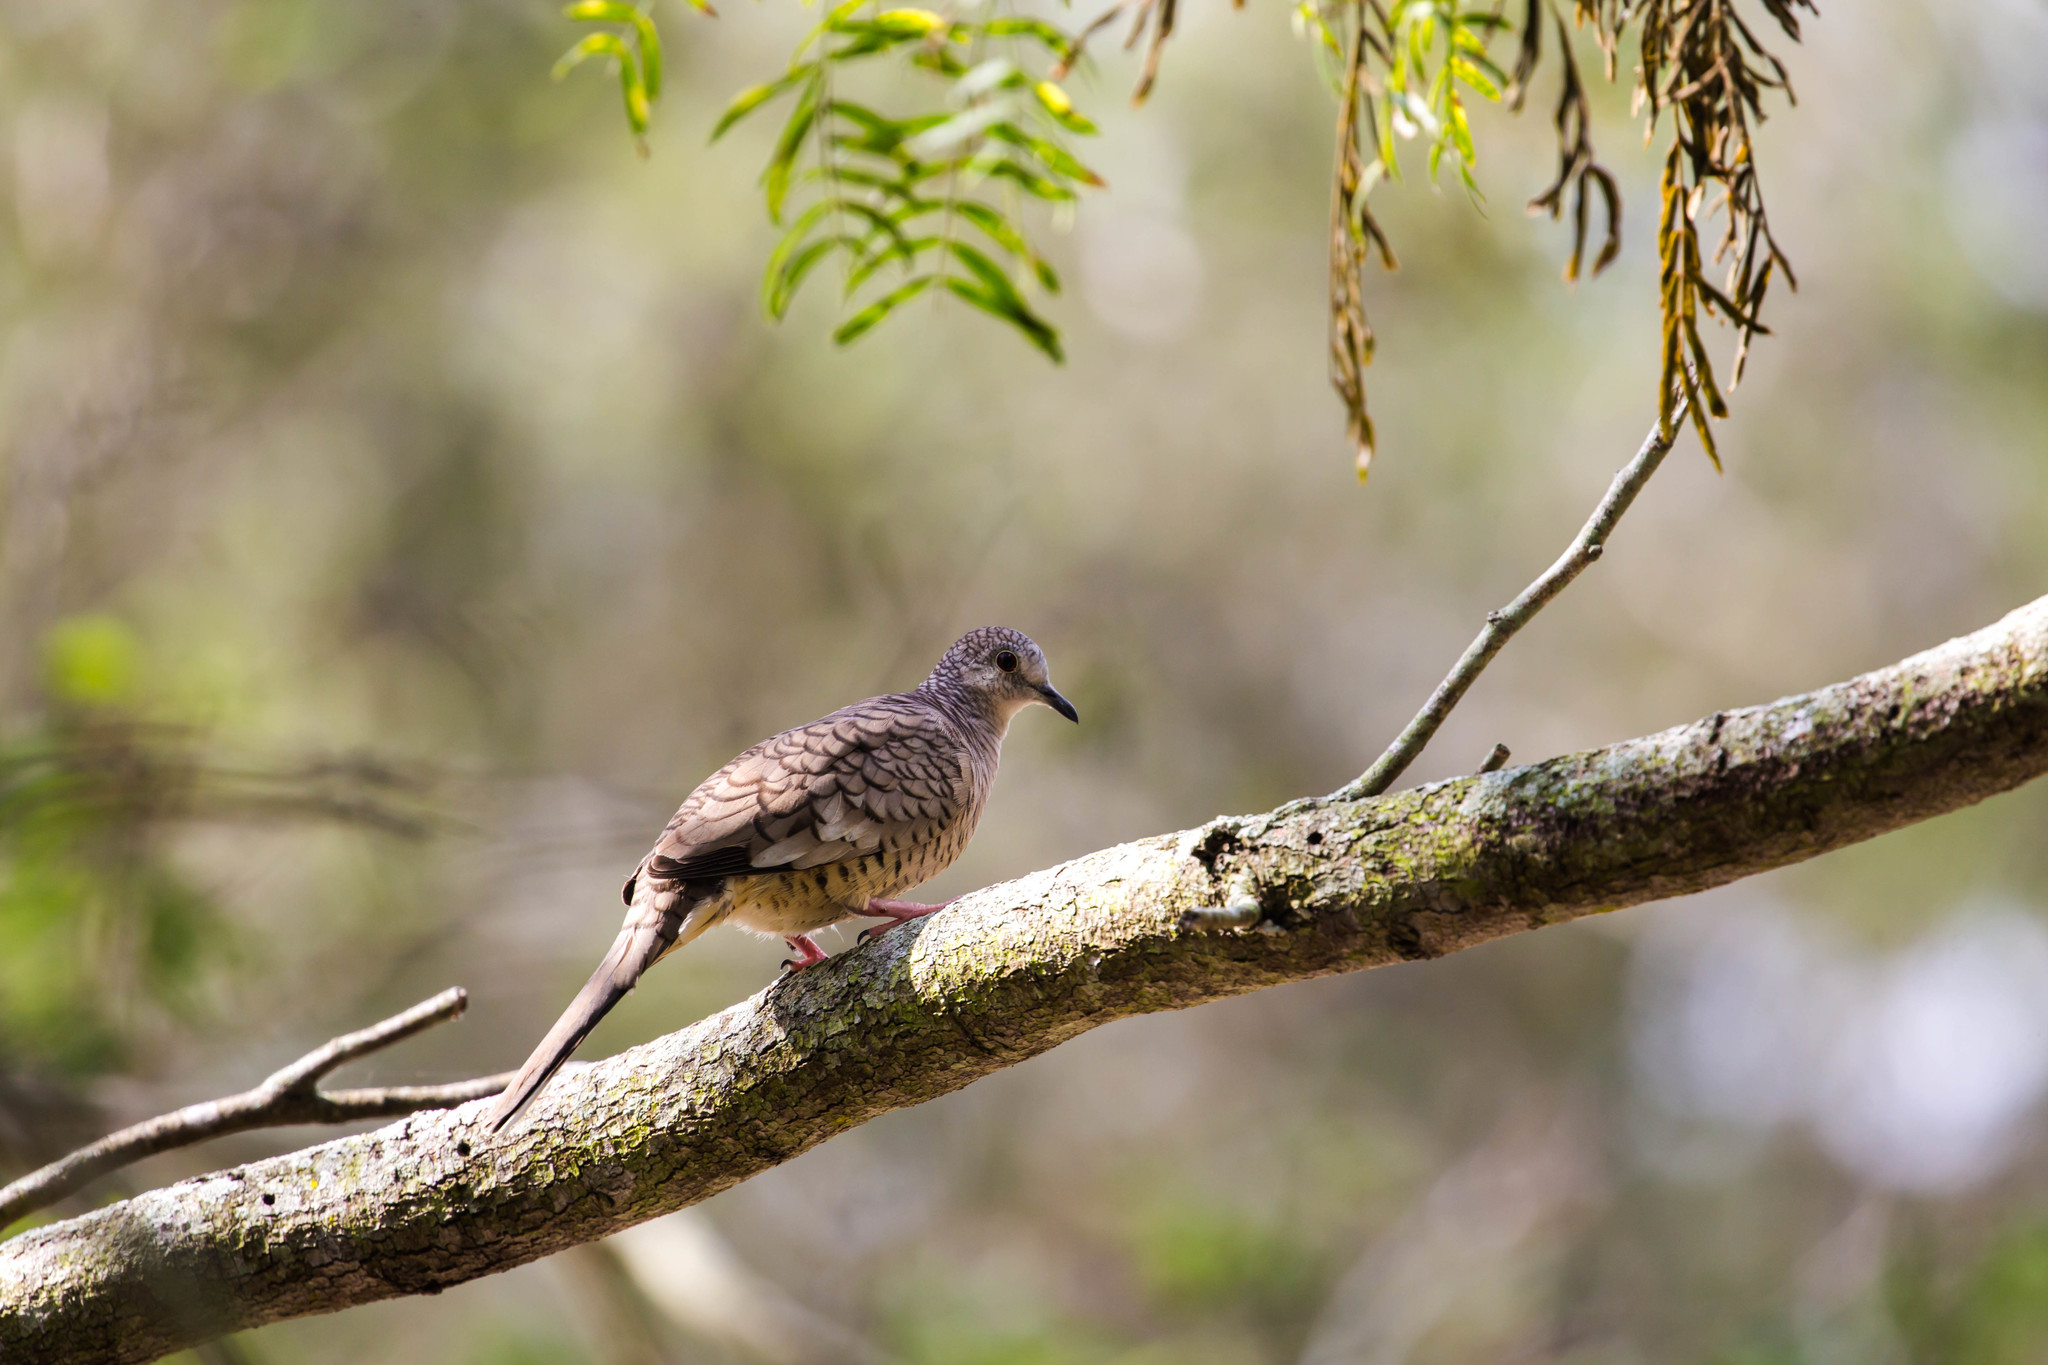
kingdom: Animalia
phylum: Chordata
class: Aves
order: Columbiformes
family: Columbidae
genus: Columbina
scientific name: Columbina inca
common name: Inca dove
